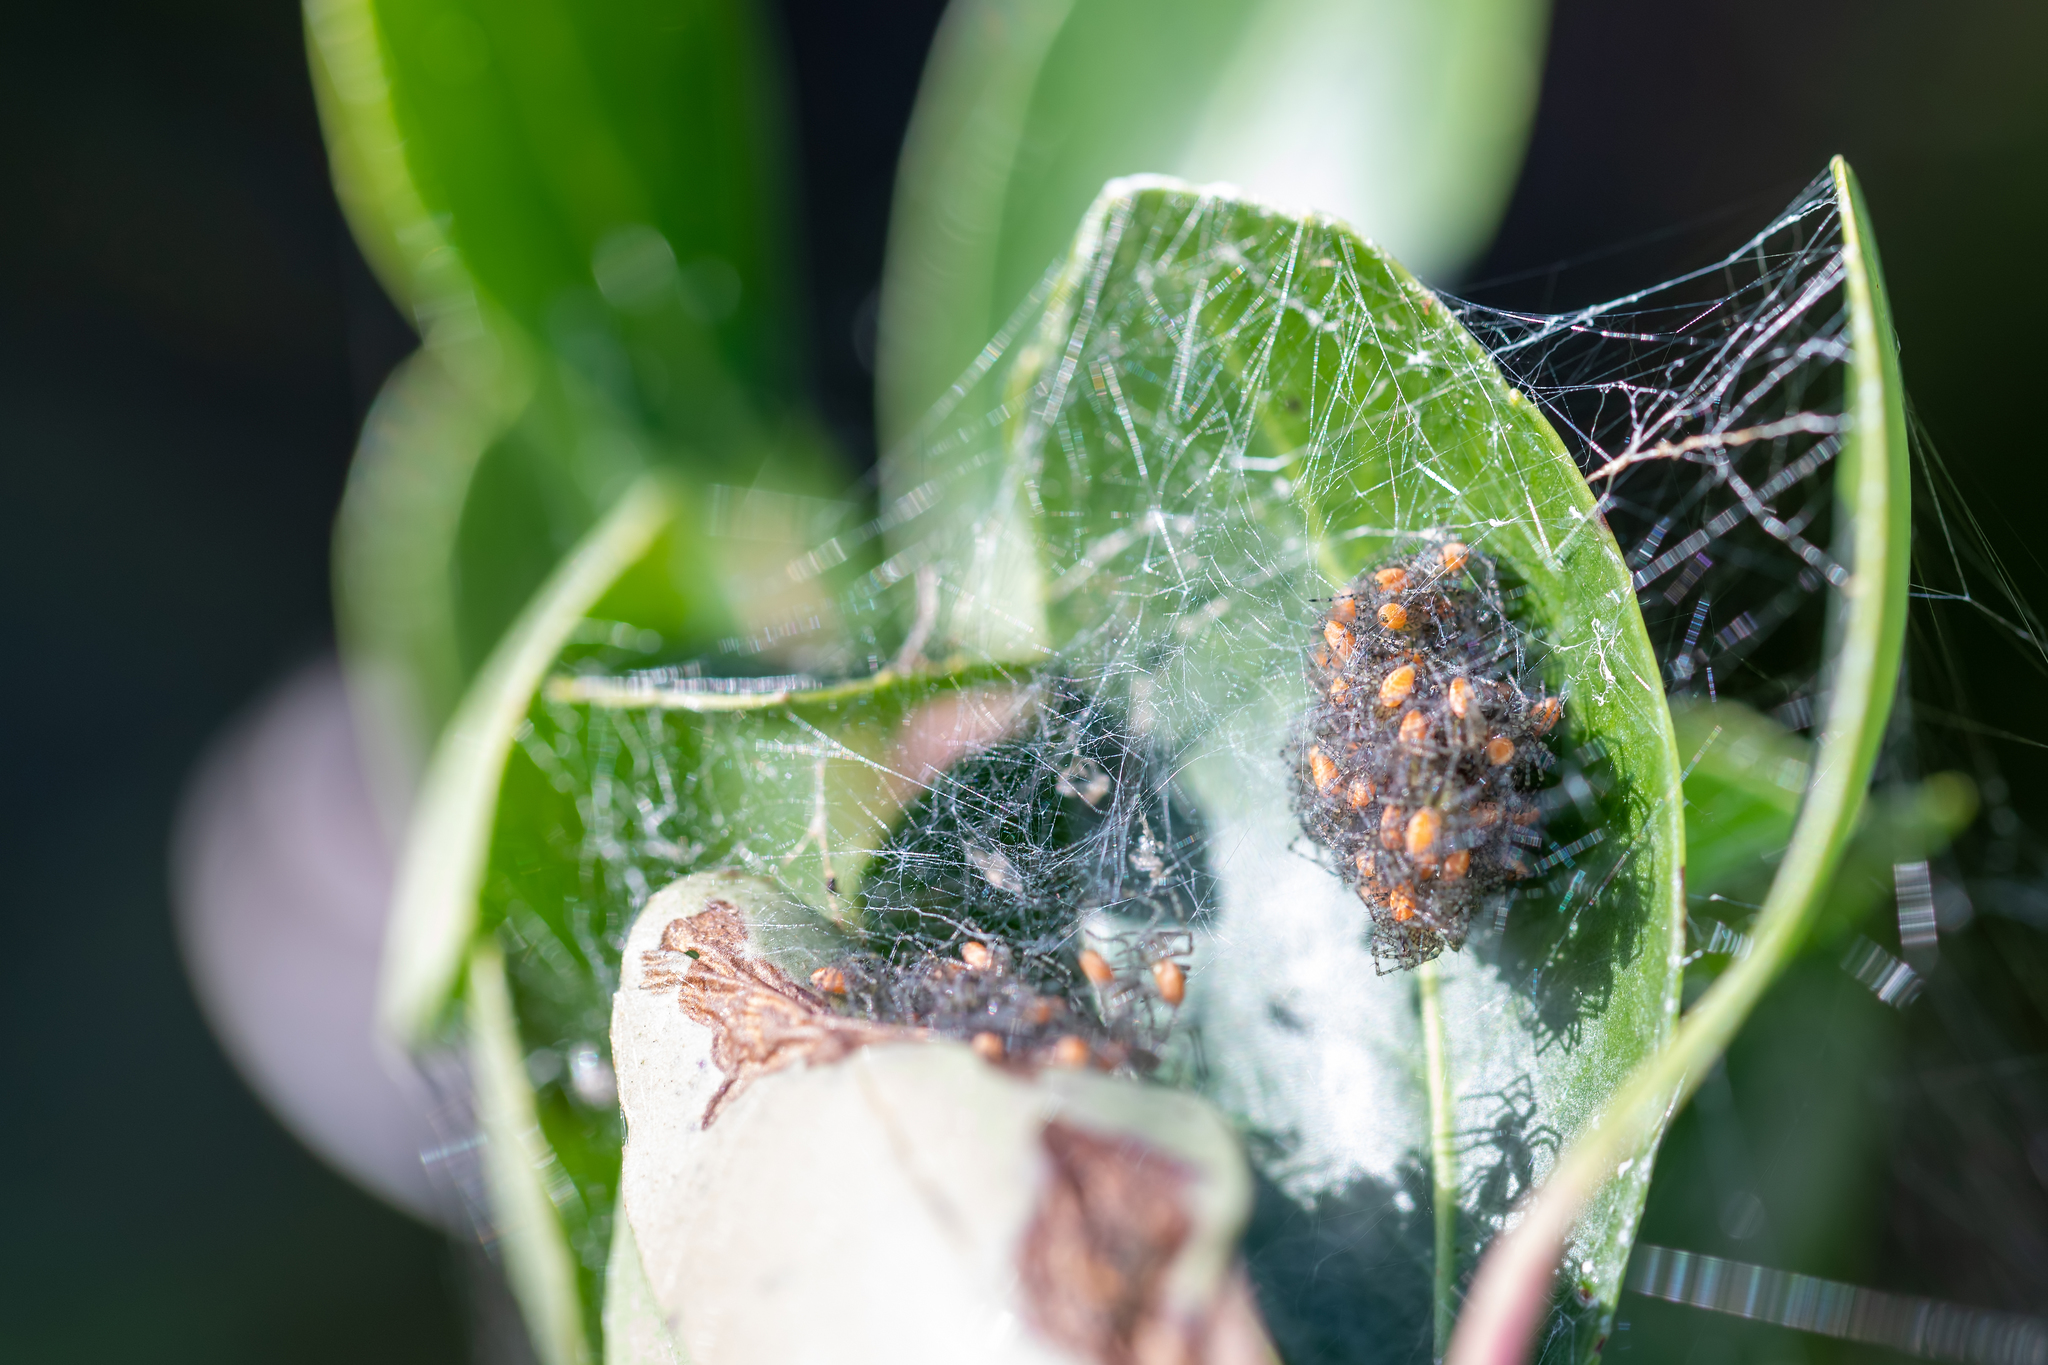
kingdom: Animalia
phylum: Arthropoda
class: Arachnida
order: Araneae
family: Oxyopidae
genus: Peucetia
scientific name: Peucetia viridans
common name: Lynx spiders
